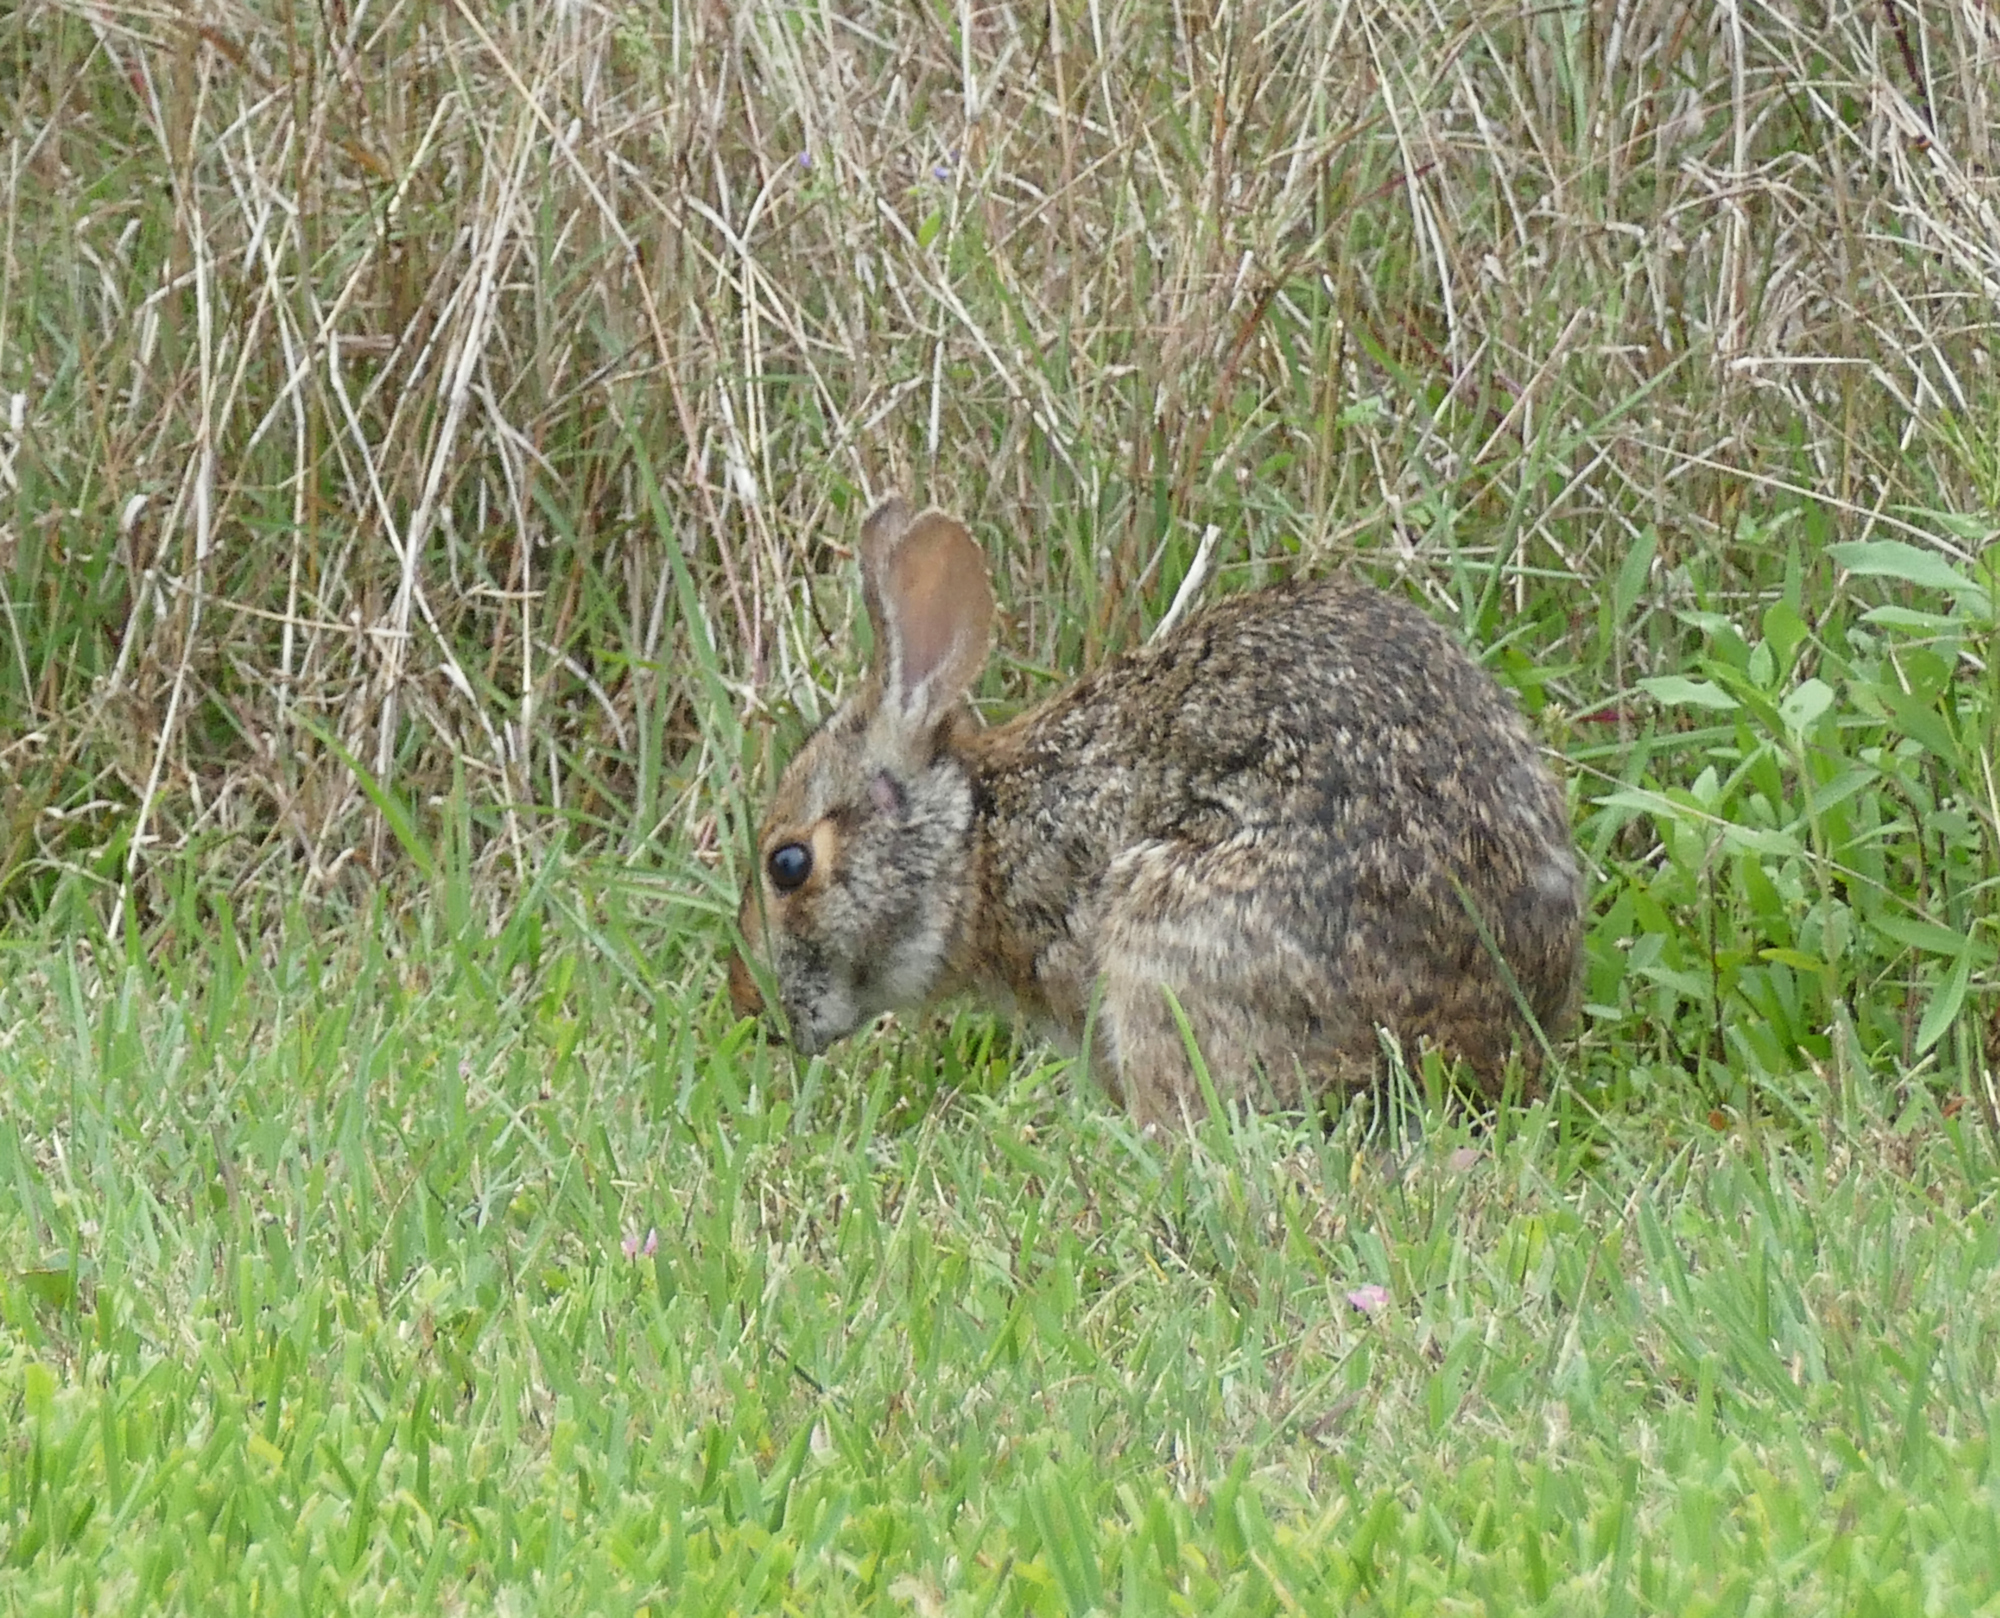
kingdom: Animalia
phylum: Chordata
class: Mammalia
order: Lagomorpha
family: Leporidae
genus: Sylvilagus
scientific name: Sylvilagus aquaticus
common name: Swamp rabbit
